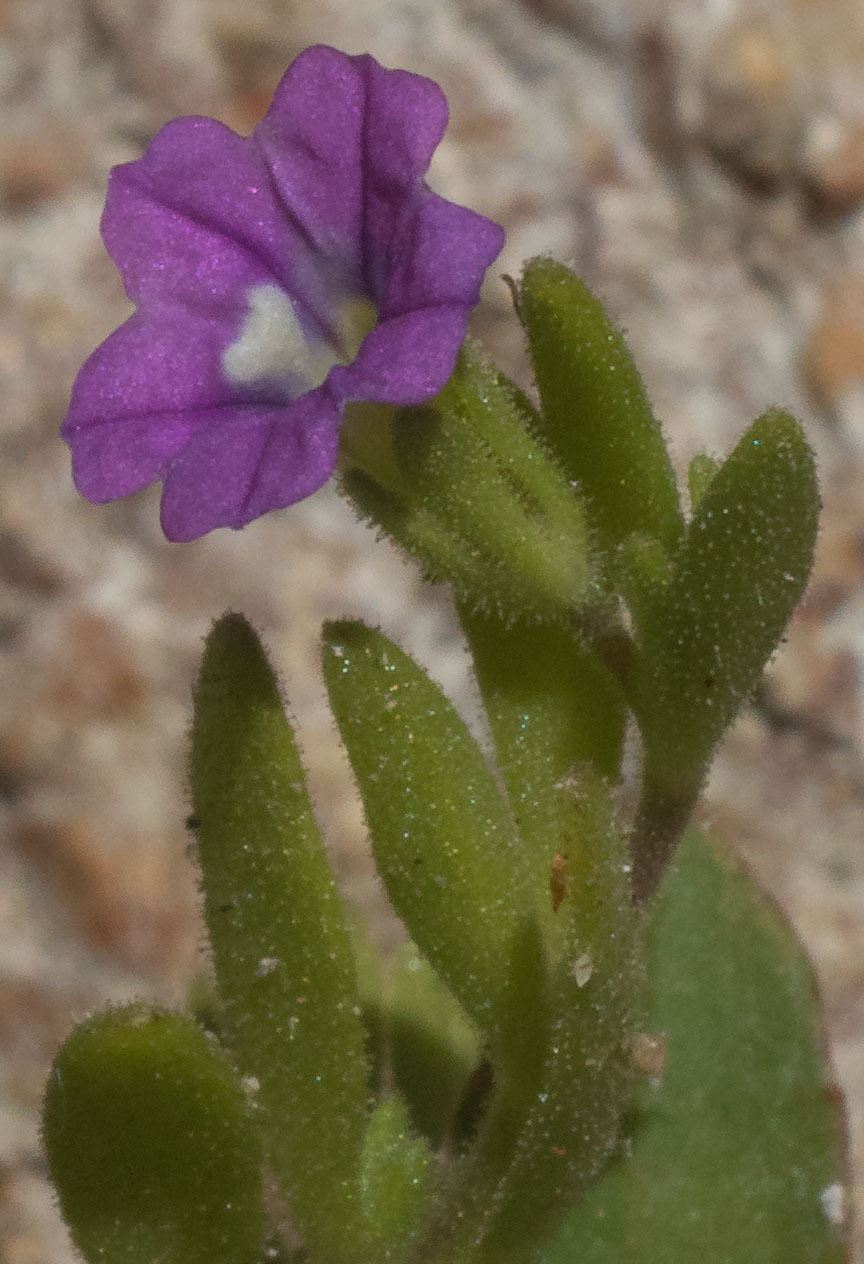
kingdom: Plantae
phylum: Tracheophyta
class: Magnoliopsida
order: Solanales
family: Solanaceae
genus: Calibrachoa
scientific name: Calibrachoa parviflora
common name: Seaside petunia
